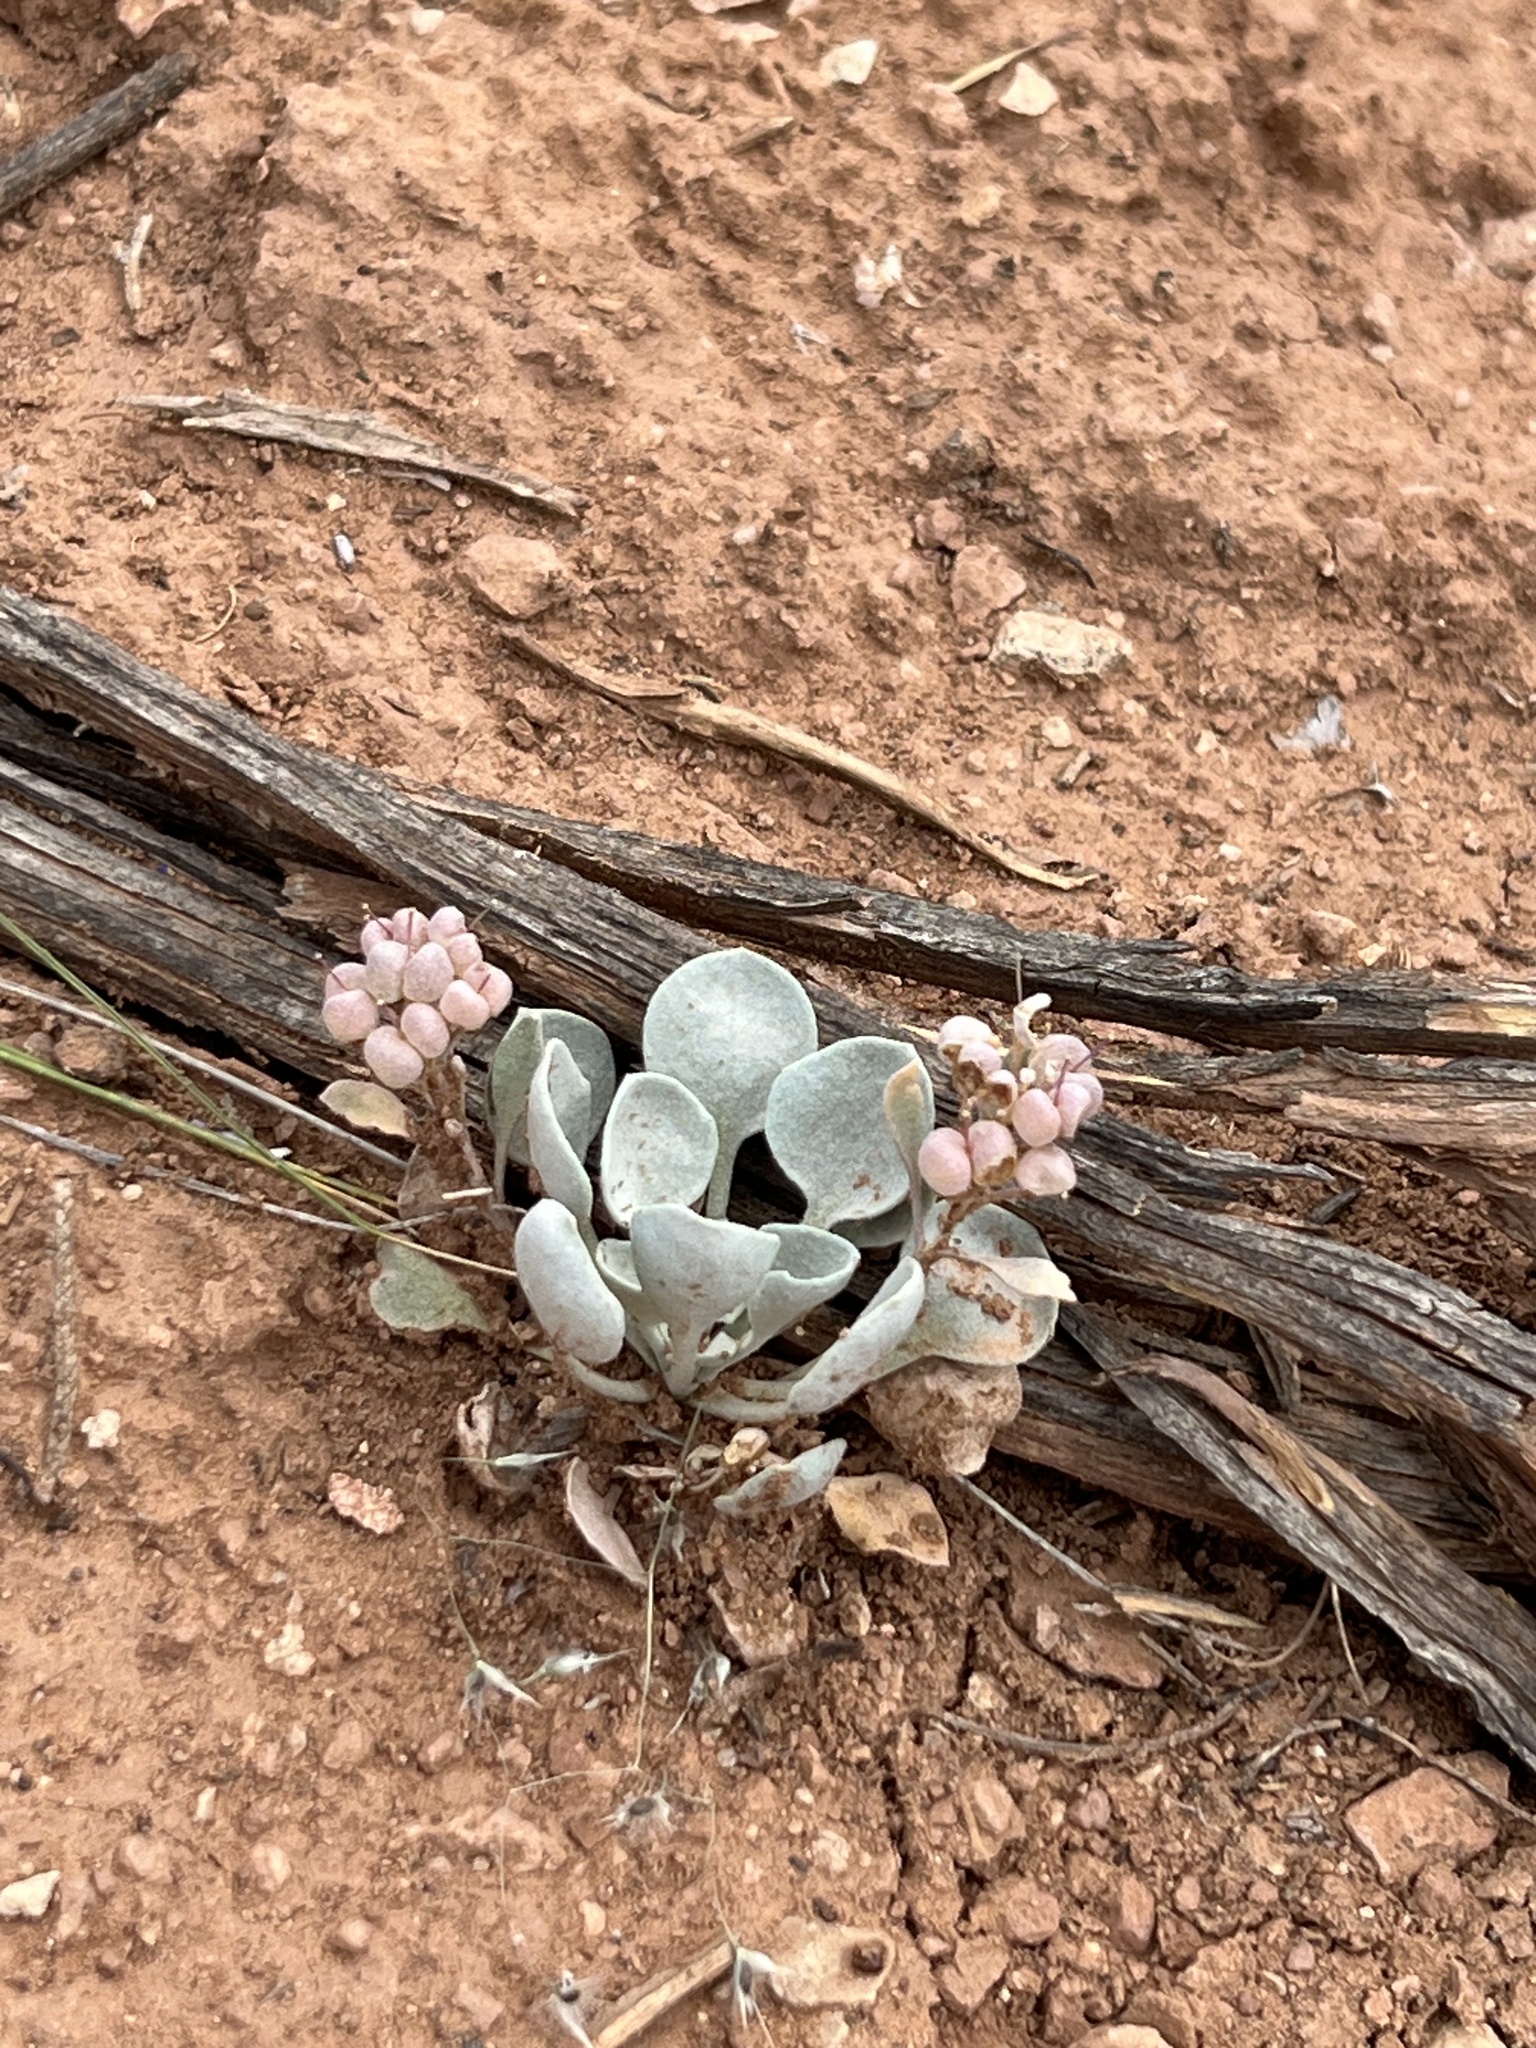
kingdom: Plantae
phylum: Tracheophyta
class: Magnoliopsida
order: Brassicales
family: Brassicaceae
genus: Physaria
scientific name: Physaria acutifolia
